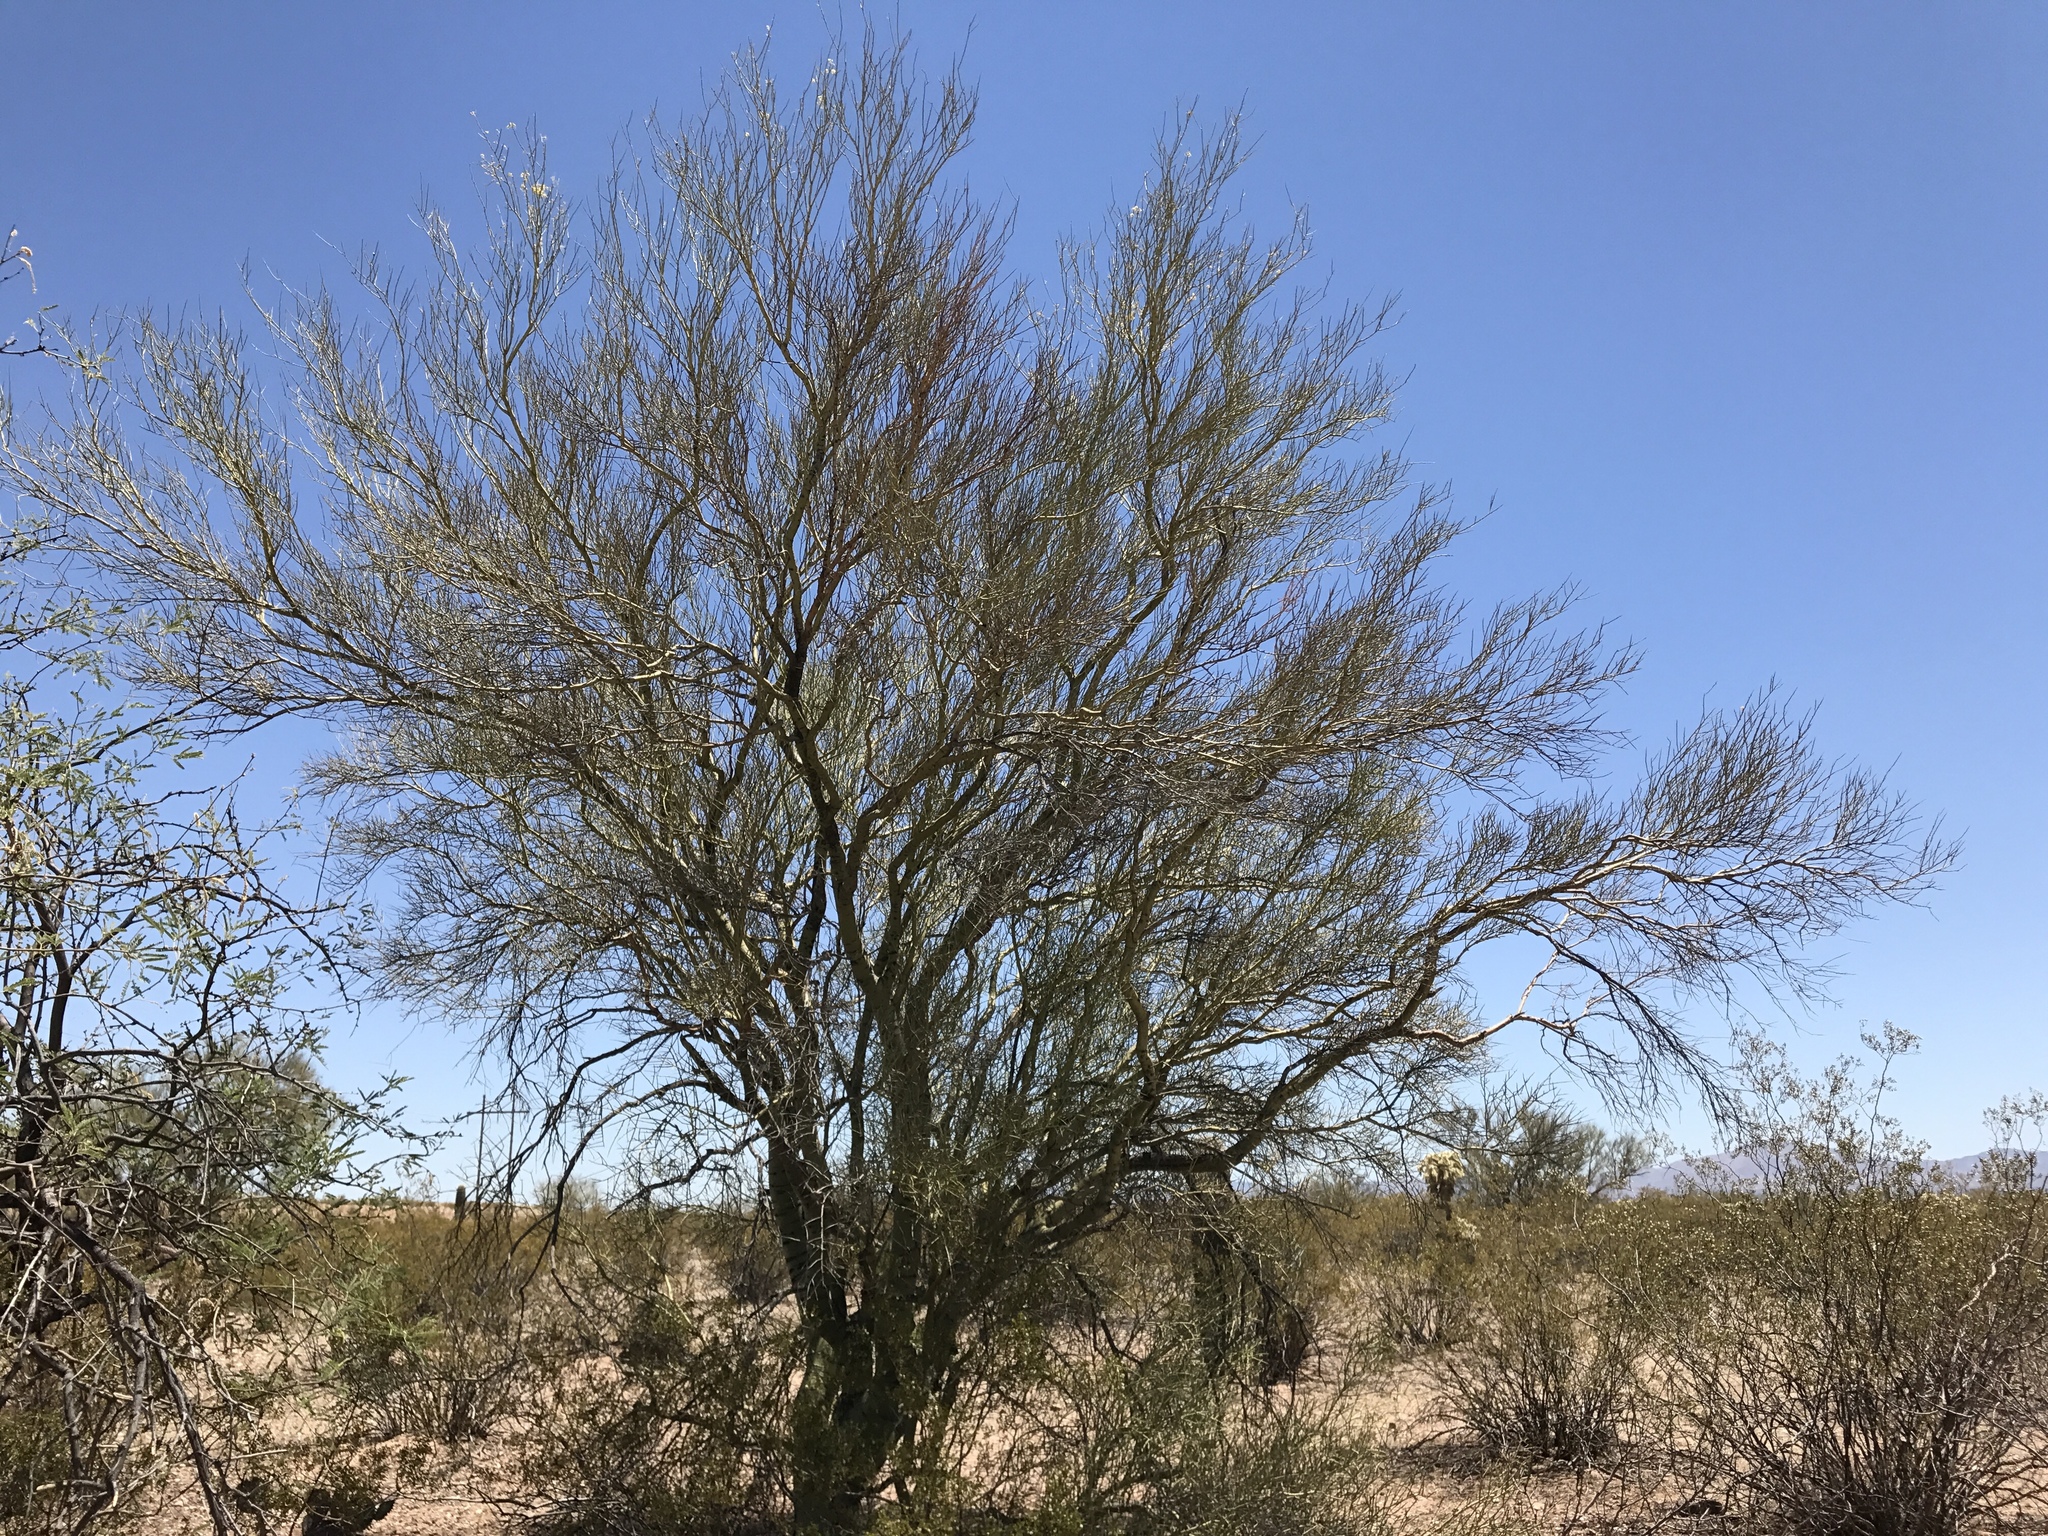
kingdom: Plantae
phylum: Tracheophyta
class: Magnoliopsida
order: Fabales
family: Fabaceae
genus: Parkinsonia
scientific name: Parkinsonia microphylla
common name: Yellow paloverde
